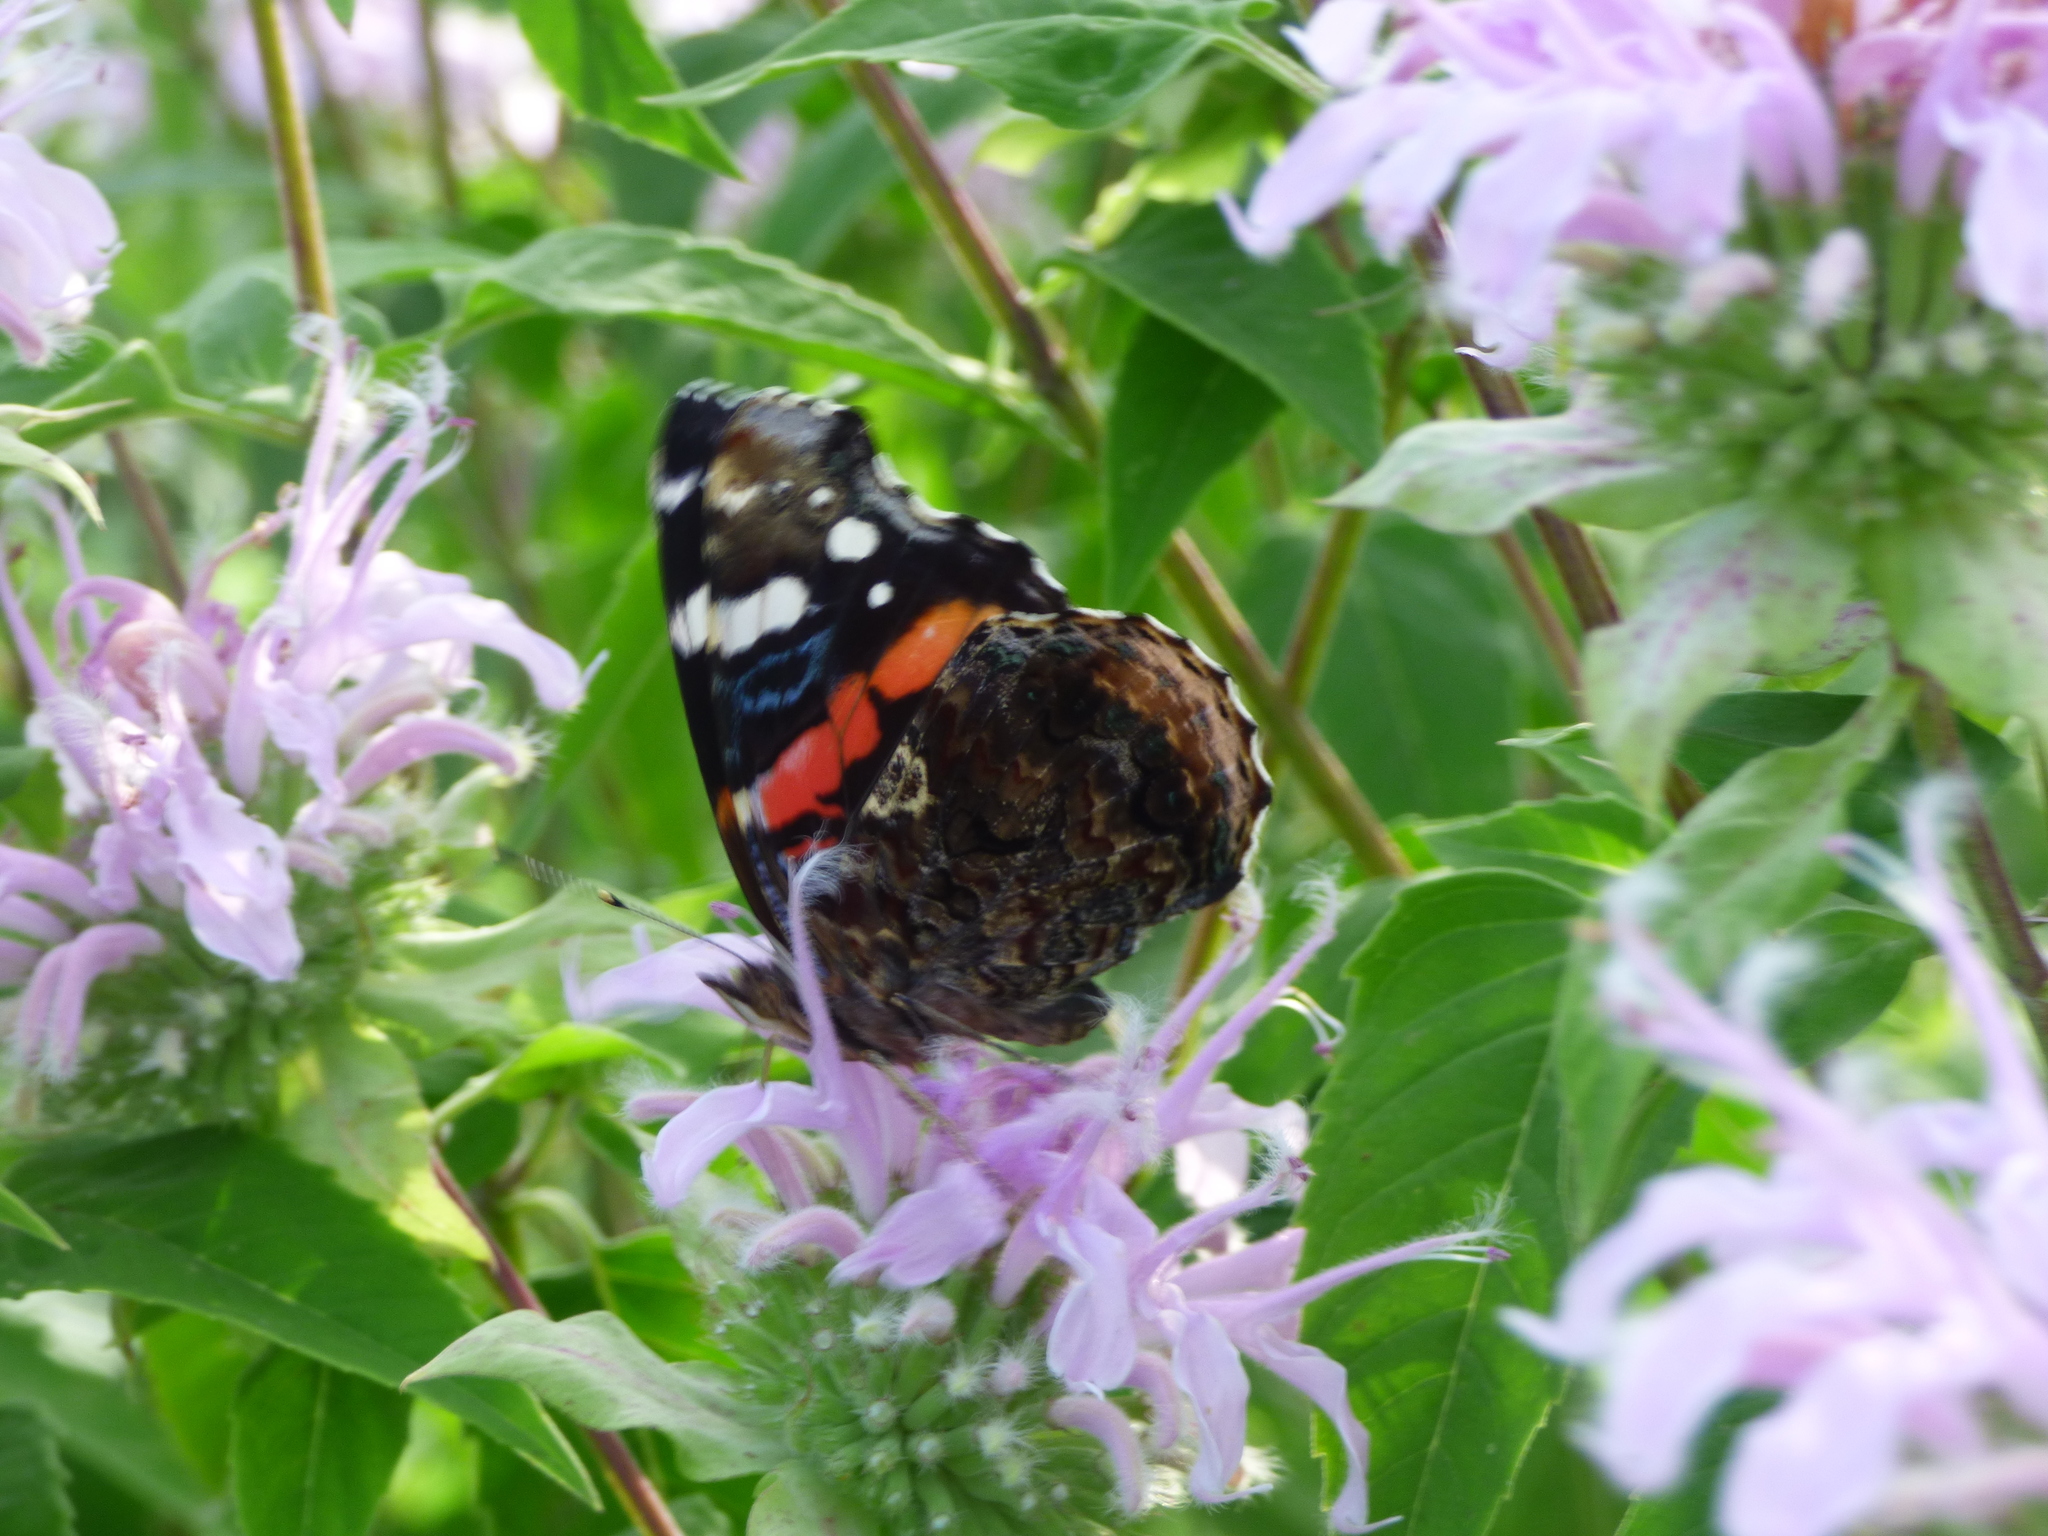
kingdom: Animalia
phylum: Arthropoda
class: Insecta
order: Lepidoptera
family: Nymphalidae
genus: Vanessa
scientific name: Vanessa atalanta
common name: Red admiral
